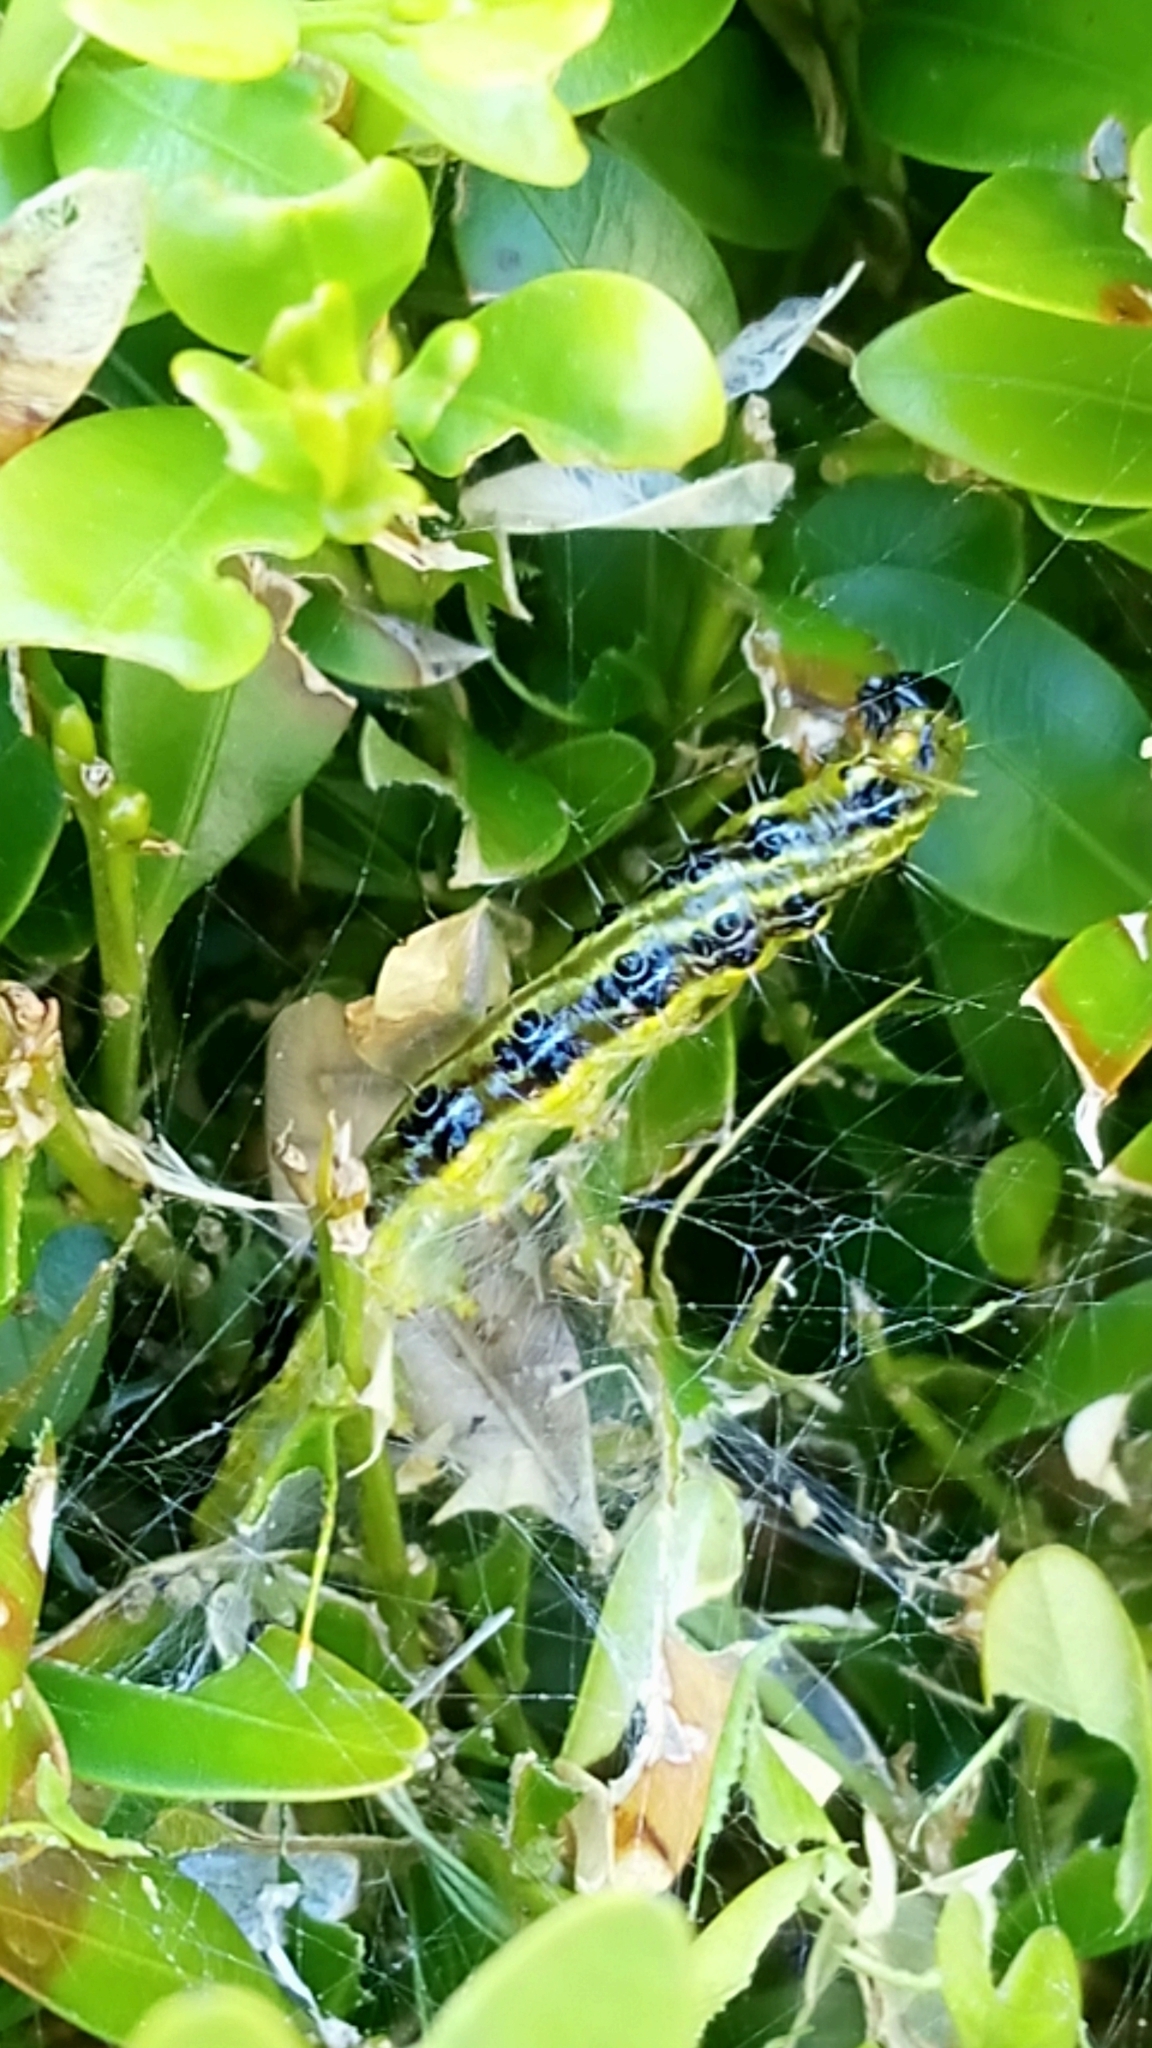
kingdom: Animalia
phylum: Arthropoda
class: Insecta
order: Lepidoptera
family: Crambidae
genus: Cydalima
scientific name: Cydalima perspectalis
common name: Box tree moth
